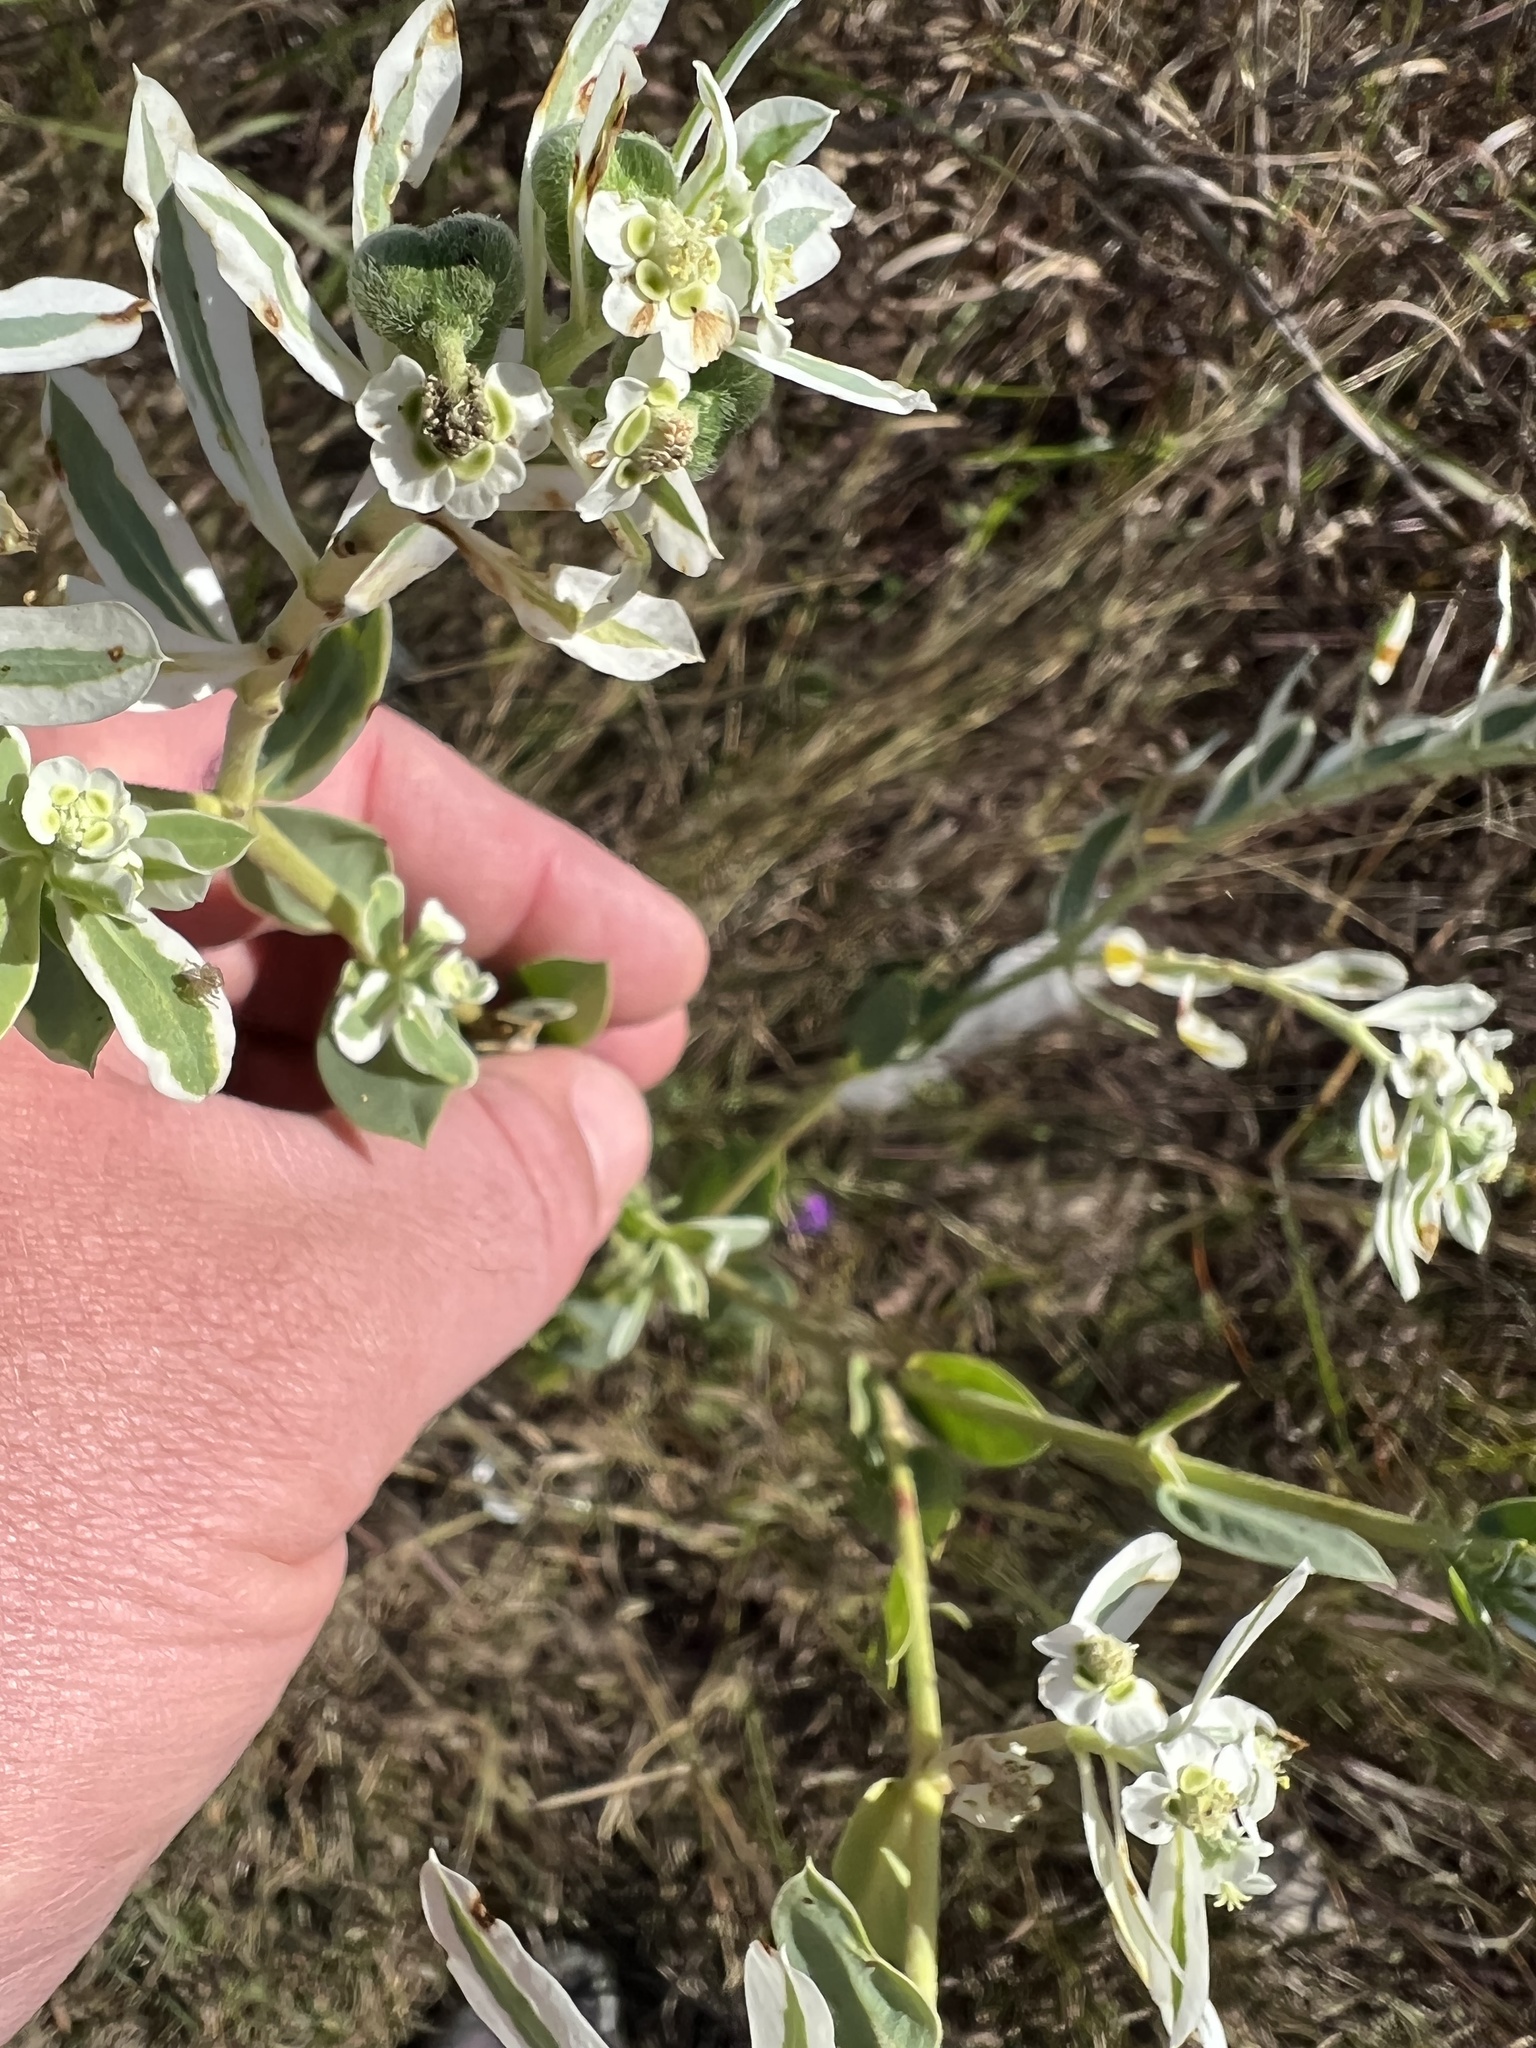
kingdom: Plantae
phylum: Tracheophyta
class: Magnoliopsida
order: Malpighiales
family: Euphorbiaceae
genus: Euphorbia
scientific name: Euphorbia marginata
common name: Ghostweed
